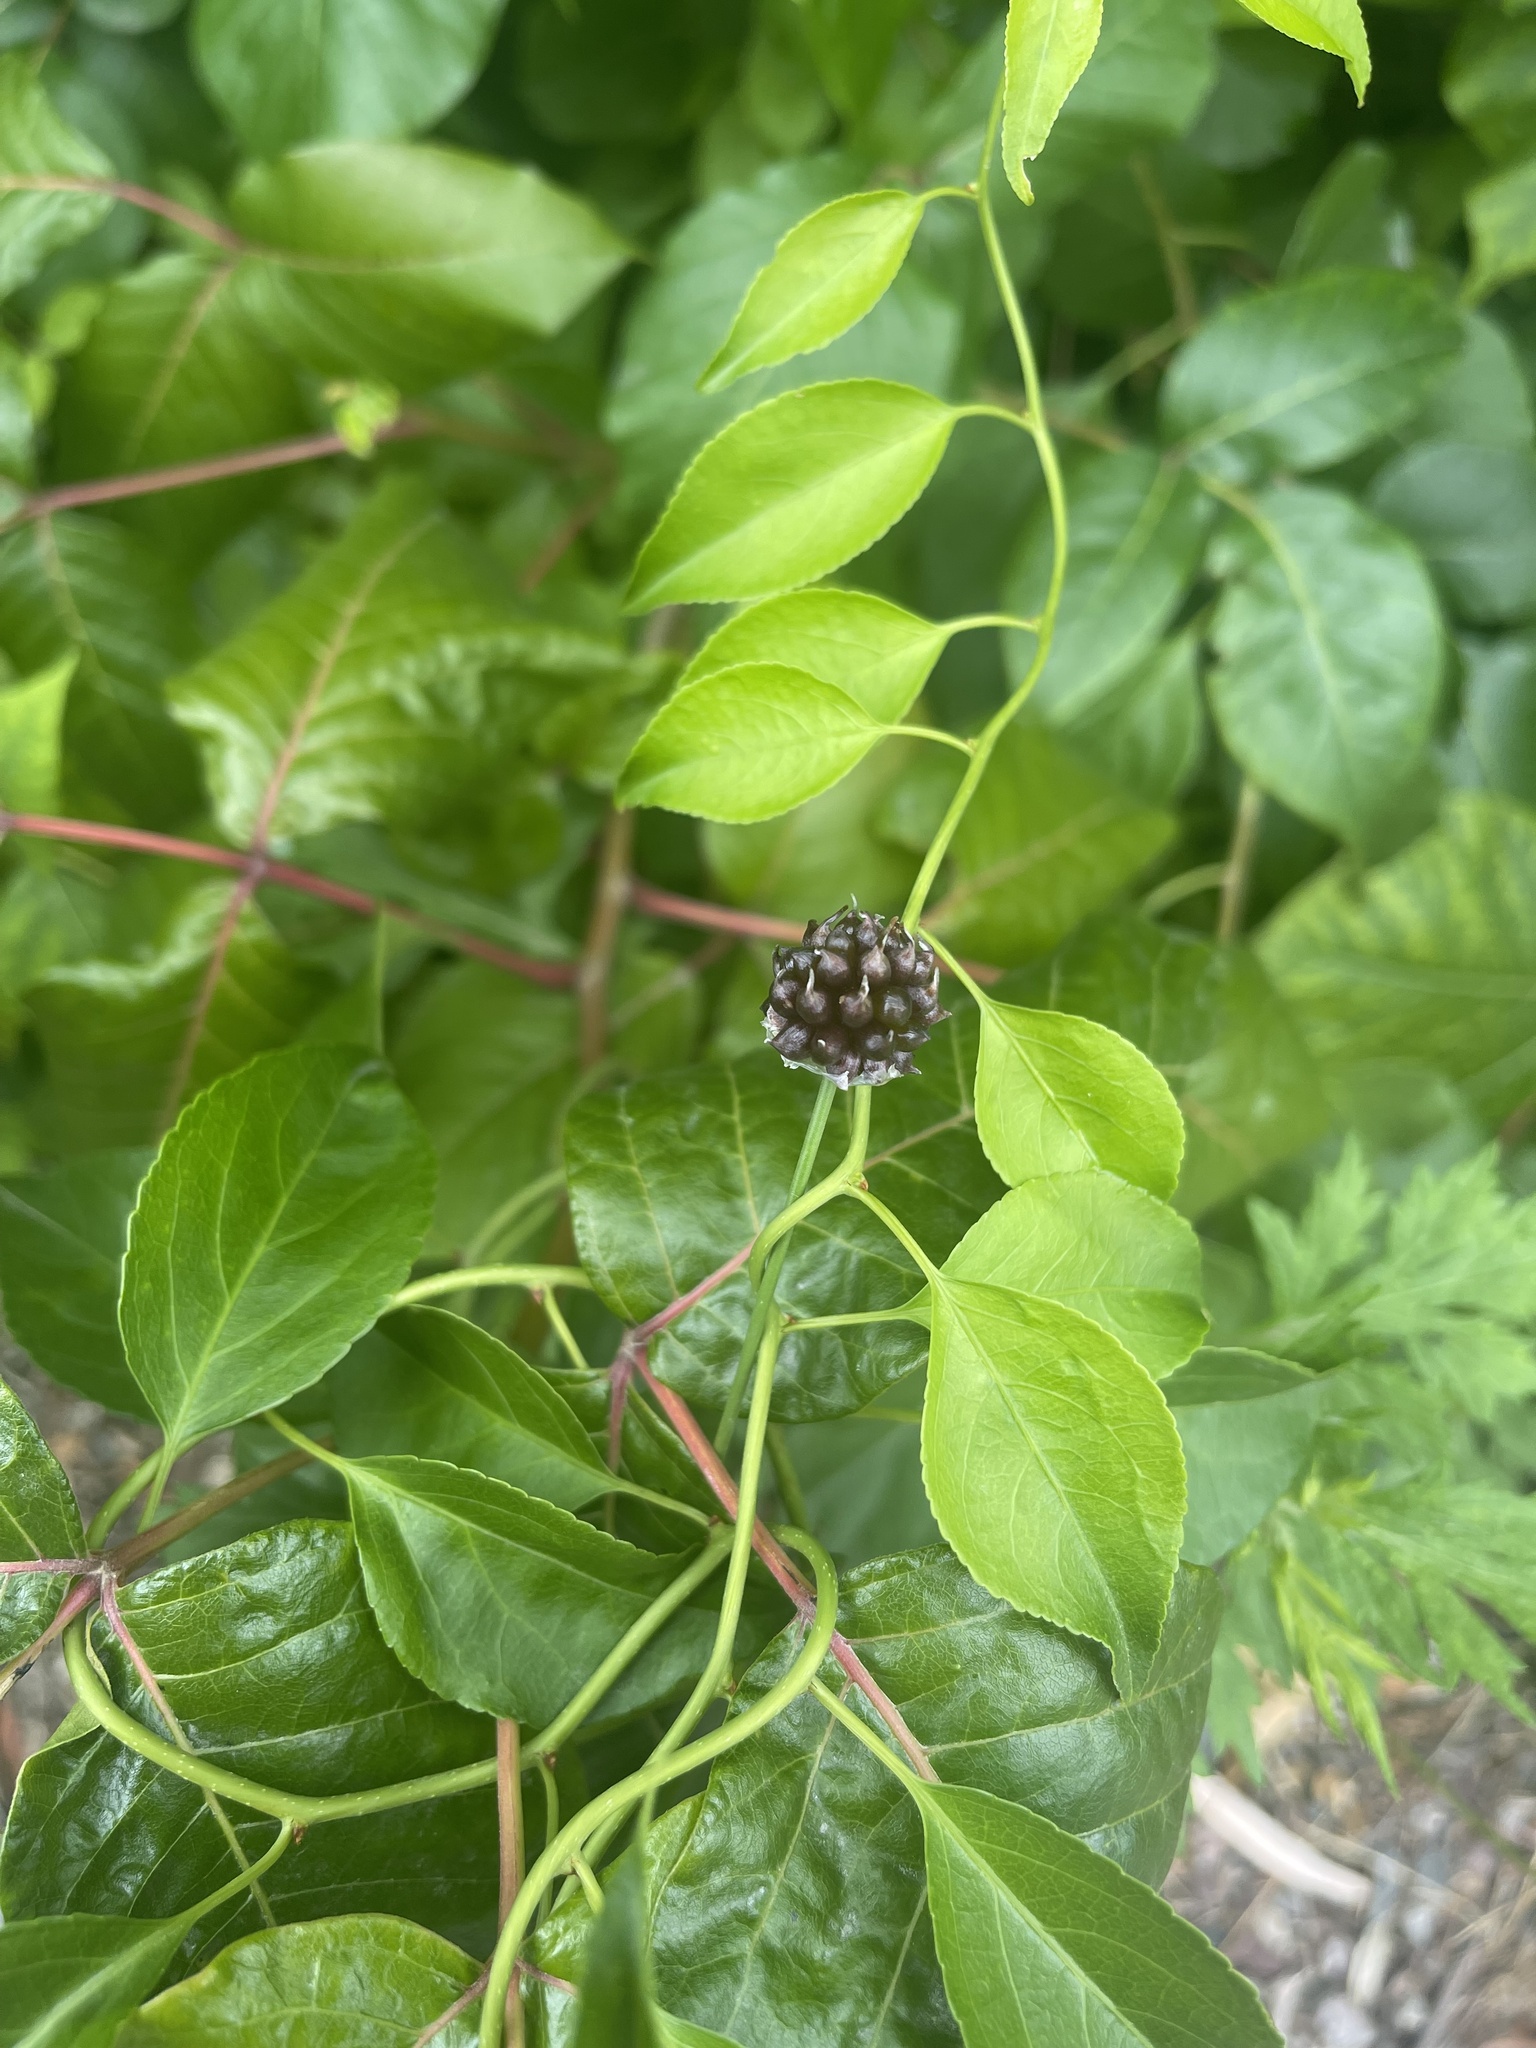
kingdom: Plantae
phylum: Tracheophyta
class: Liliopsida
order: Asparagales
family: Amaryllidaceae
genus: Allium
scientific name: Allium vineale
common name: Crow garlic
